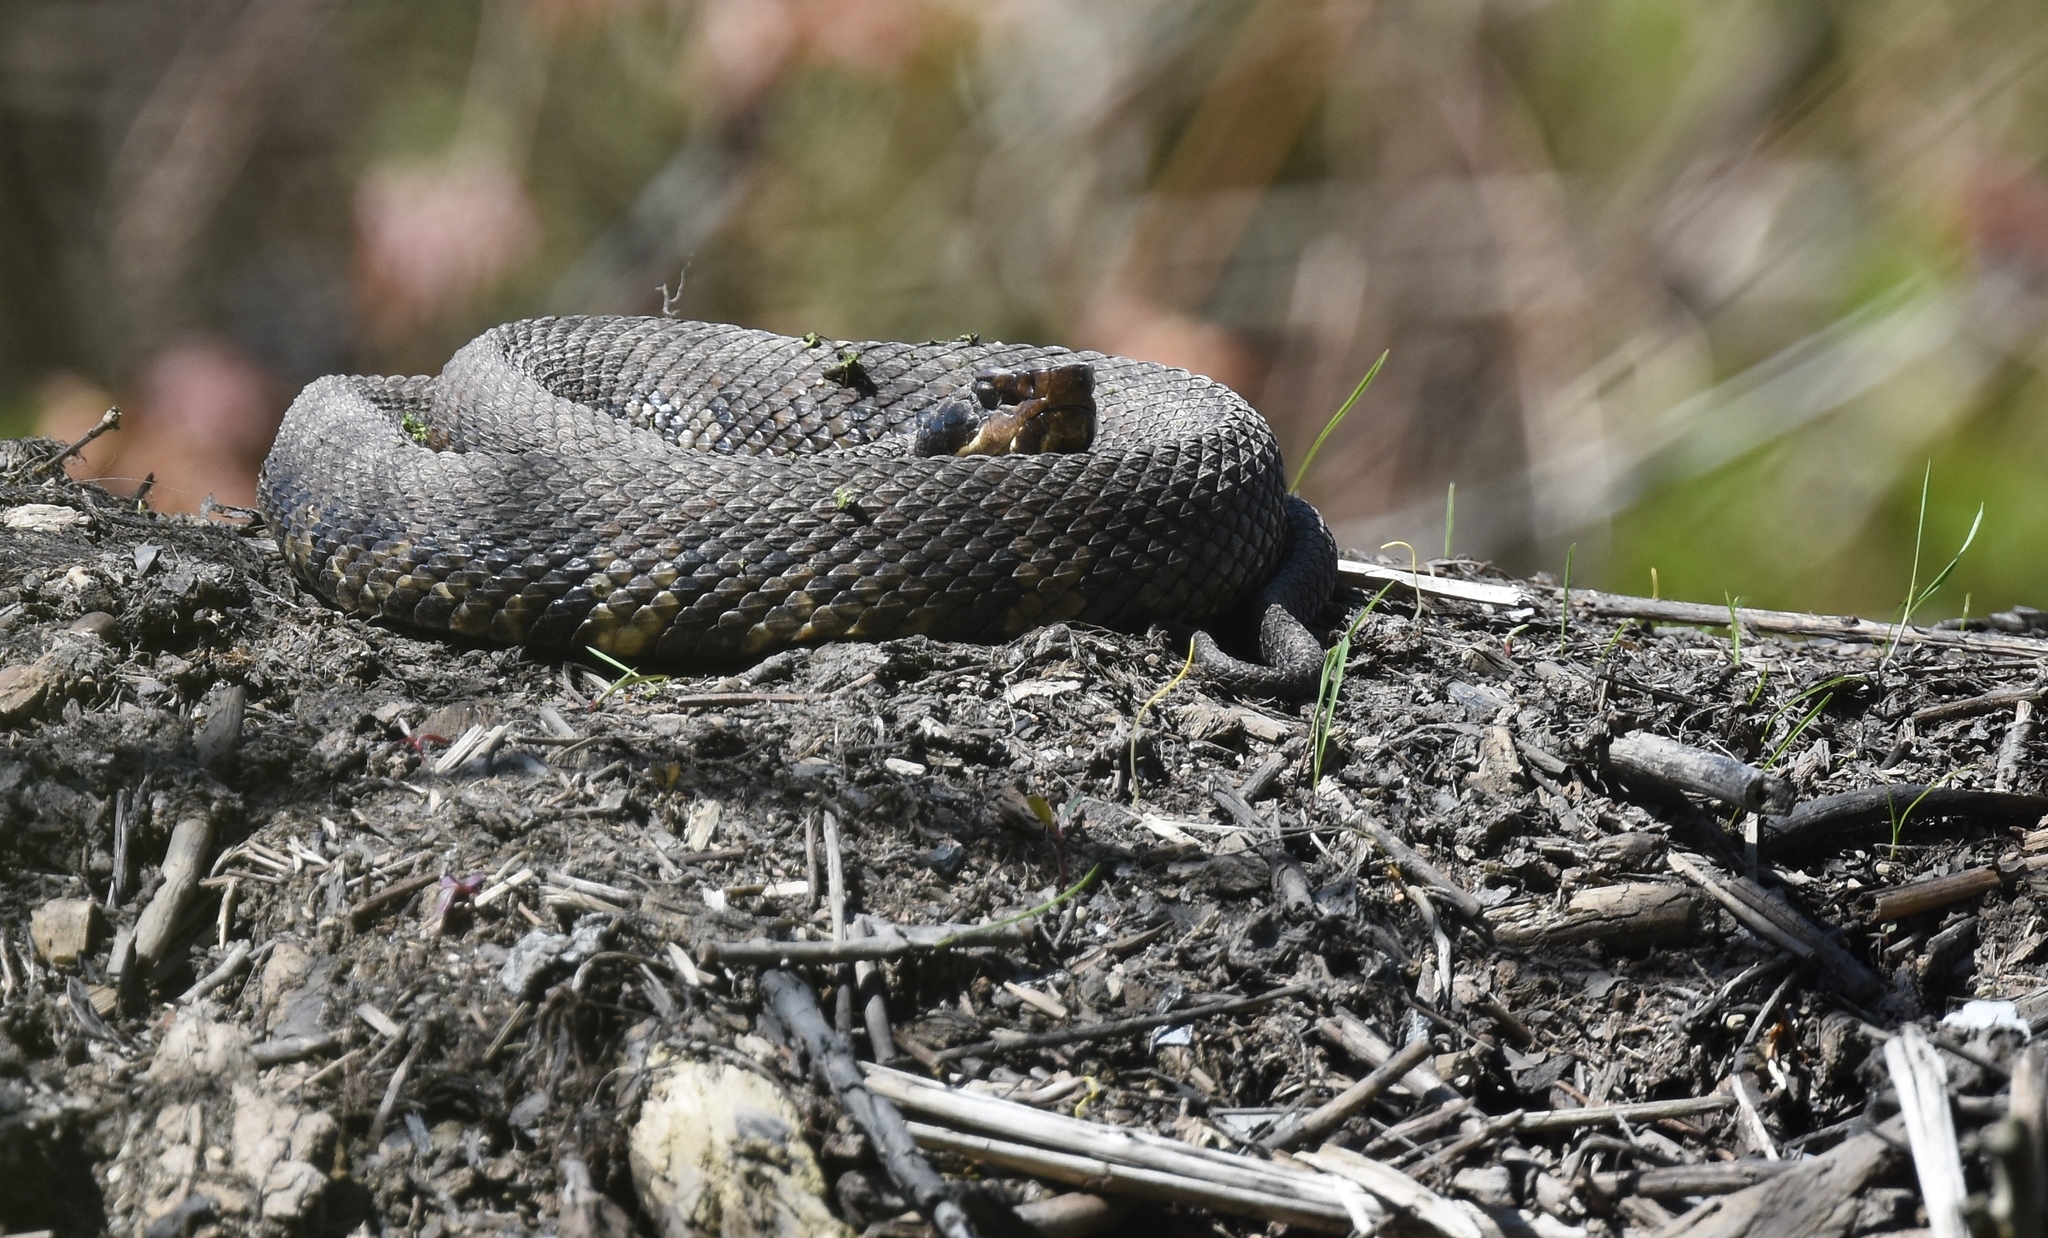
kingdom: Animalia
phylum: Chordata
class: Squamata
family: Viperidae
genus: Agkistrodon
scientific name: Agkistrodon piscivorus
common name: Cottonmouth
